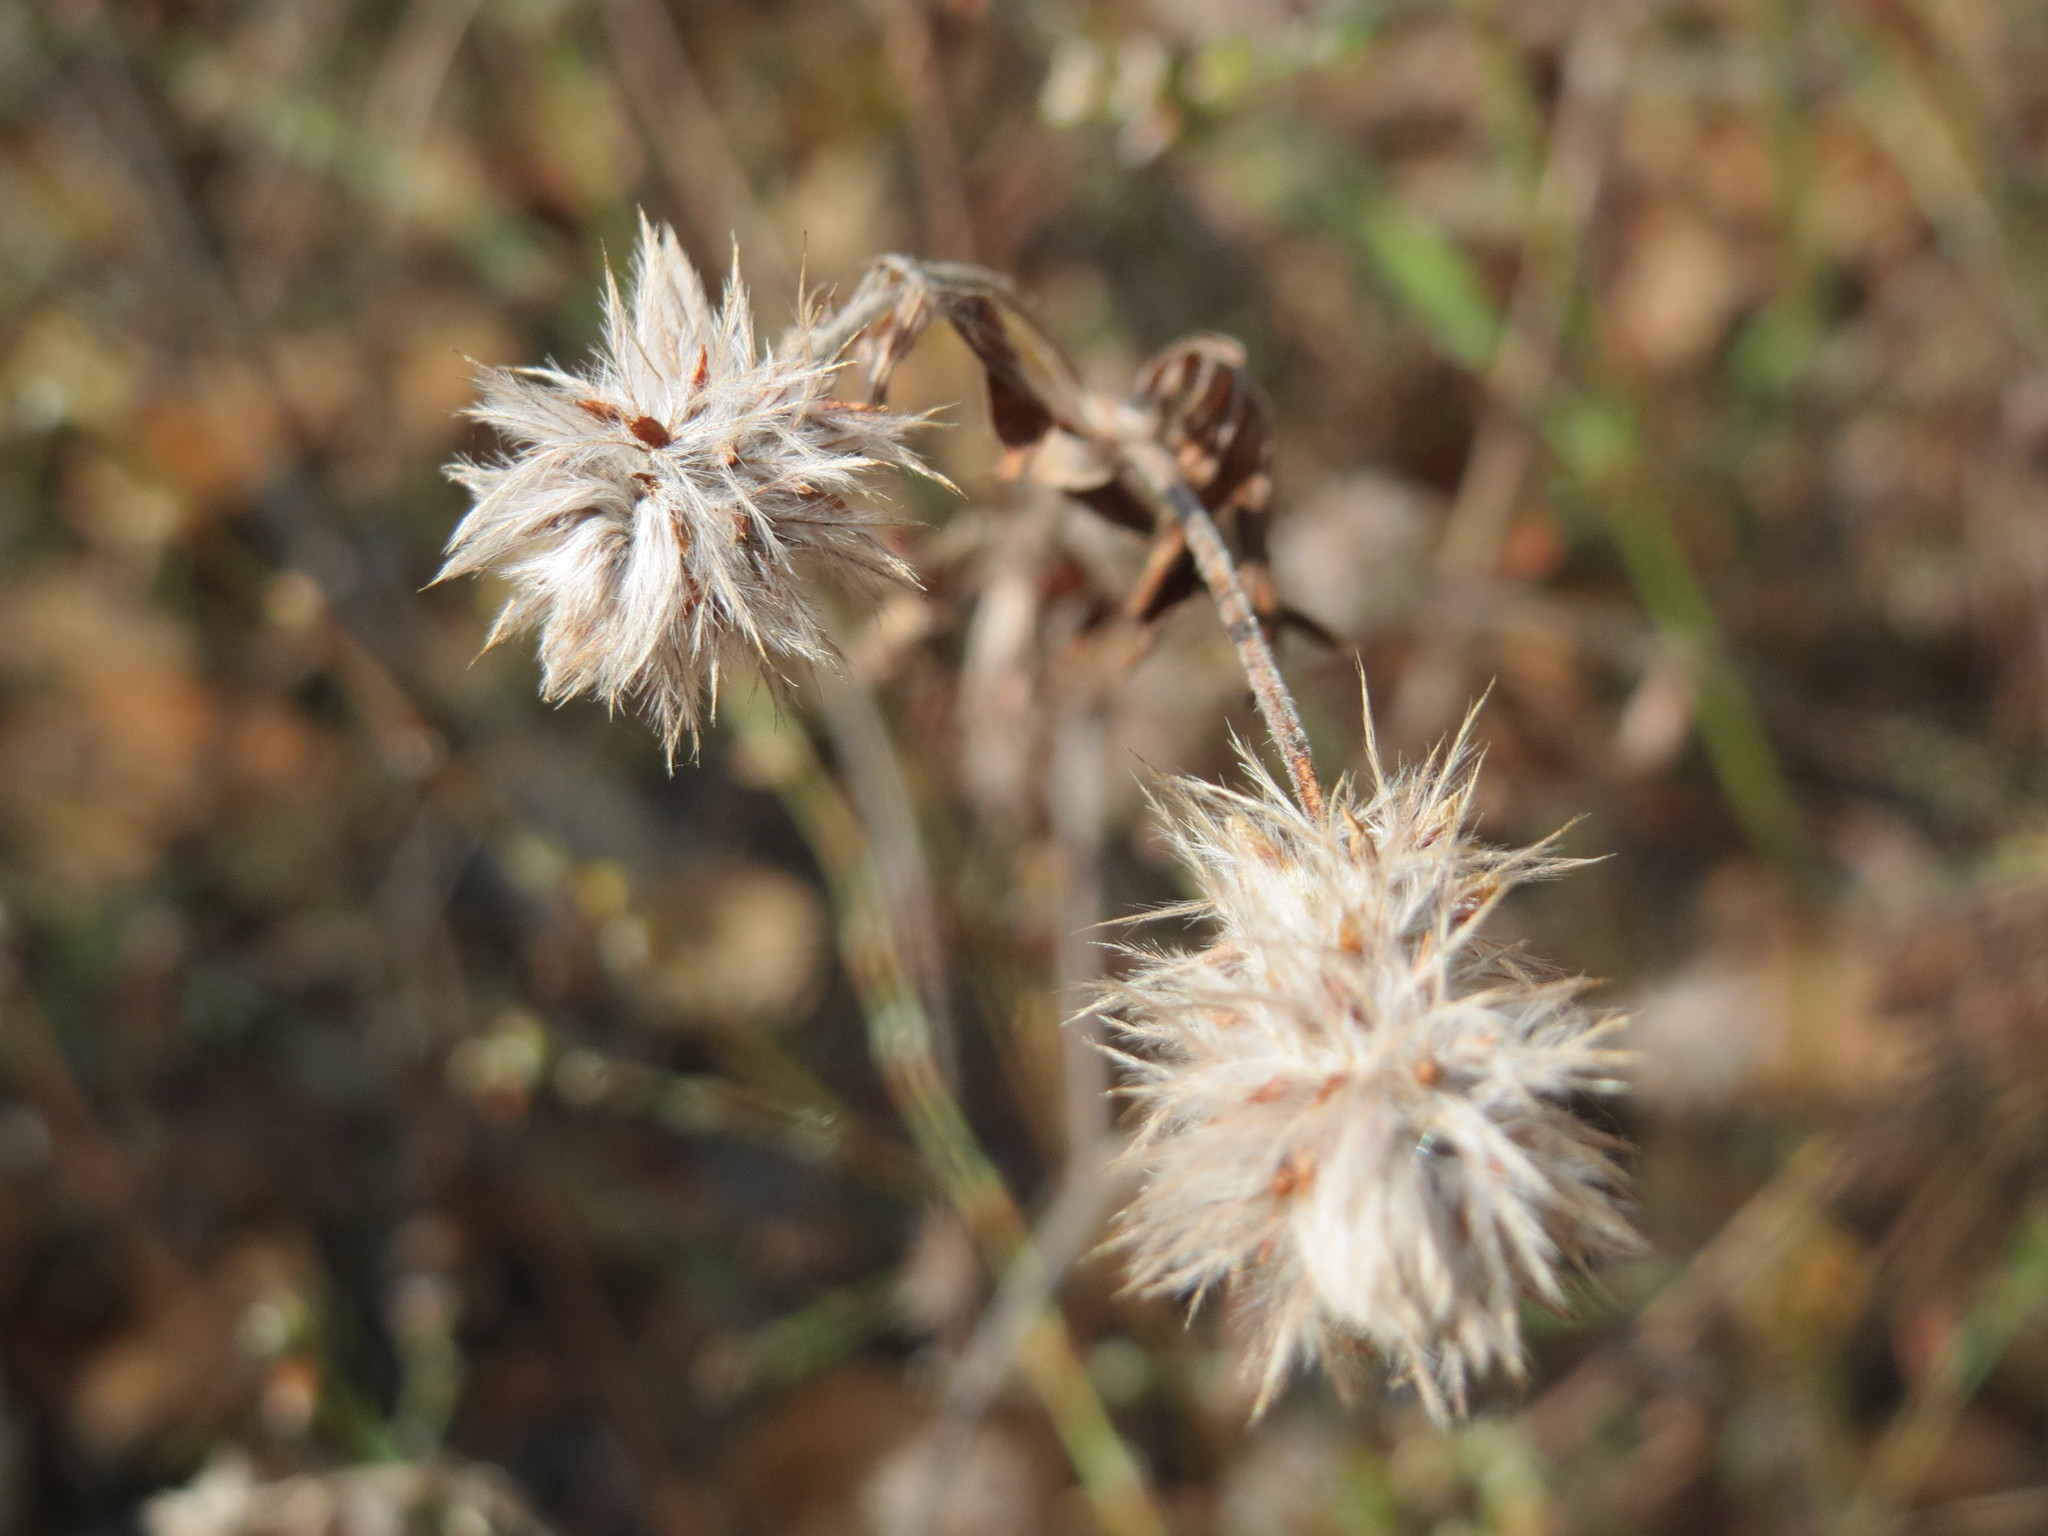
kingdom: Plantae
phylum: Tracheophyta
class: Magnoliopsida
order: Fabales
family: Fabaceae
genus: Trifolium
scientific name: Trifolium arvense
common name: Hare's-foot clover
